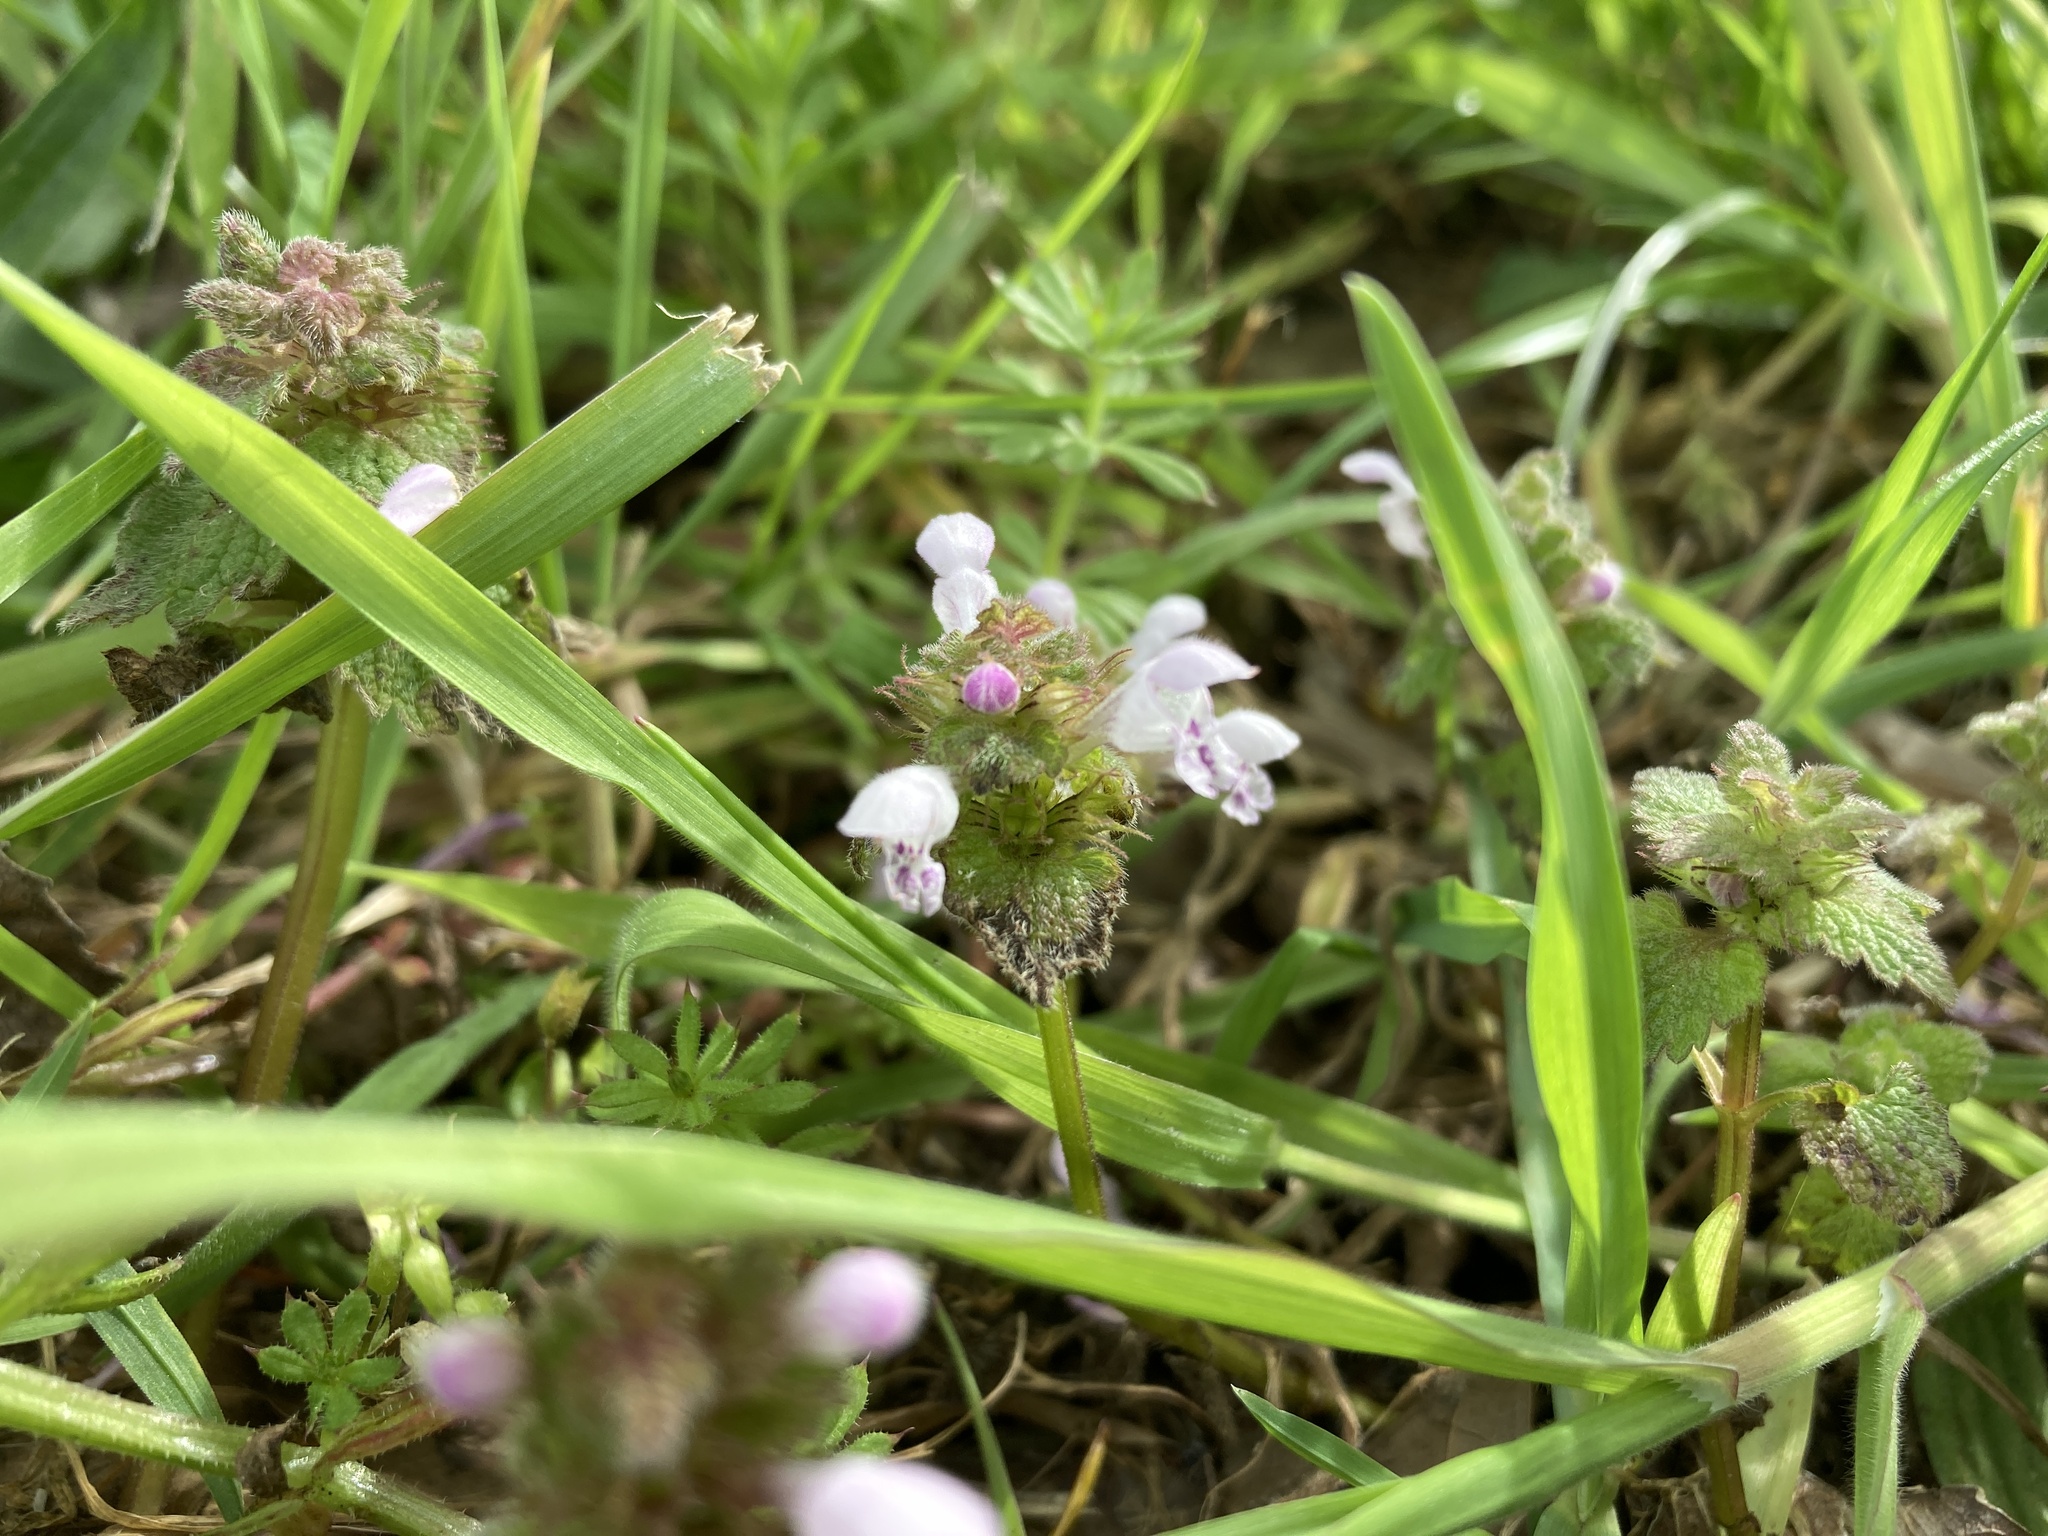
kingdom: Plantae
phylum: Tracheophyta
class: Magnoliopsida
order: Lamiales
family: Lamiaceae
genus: Lamium
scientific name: Lamium purpureum
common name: Red dead-nettle
